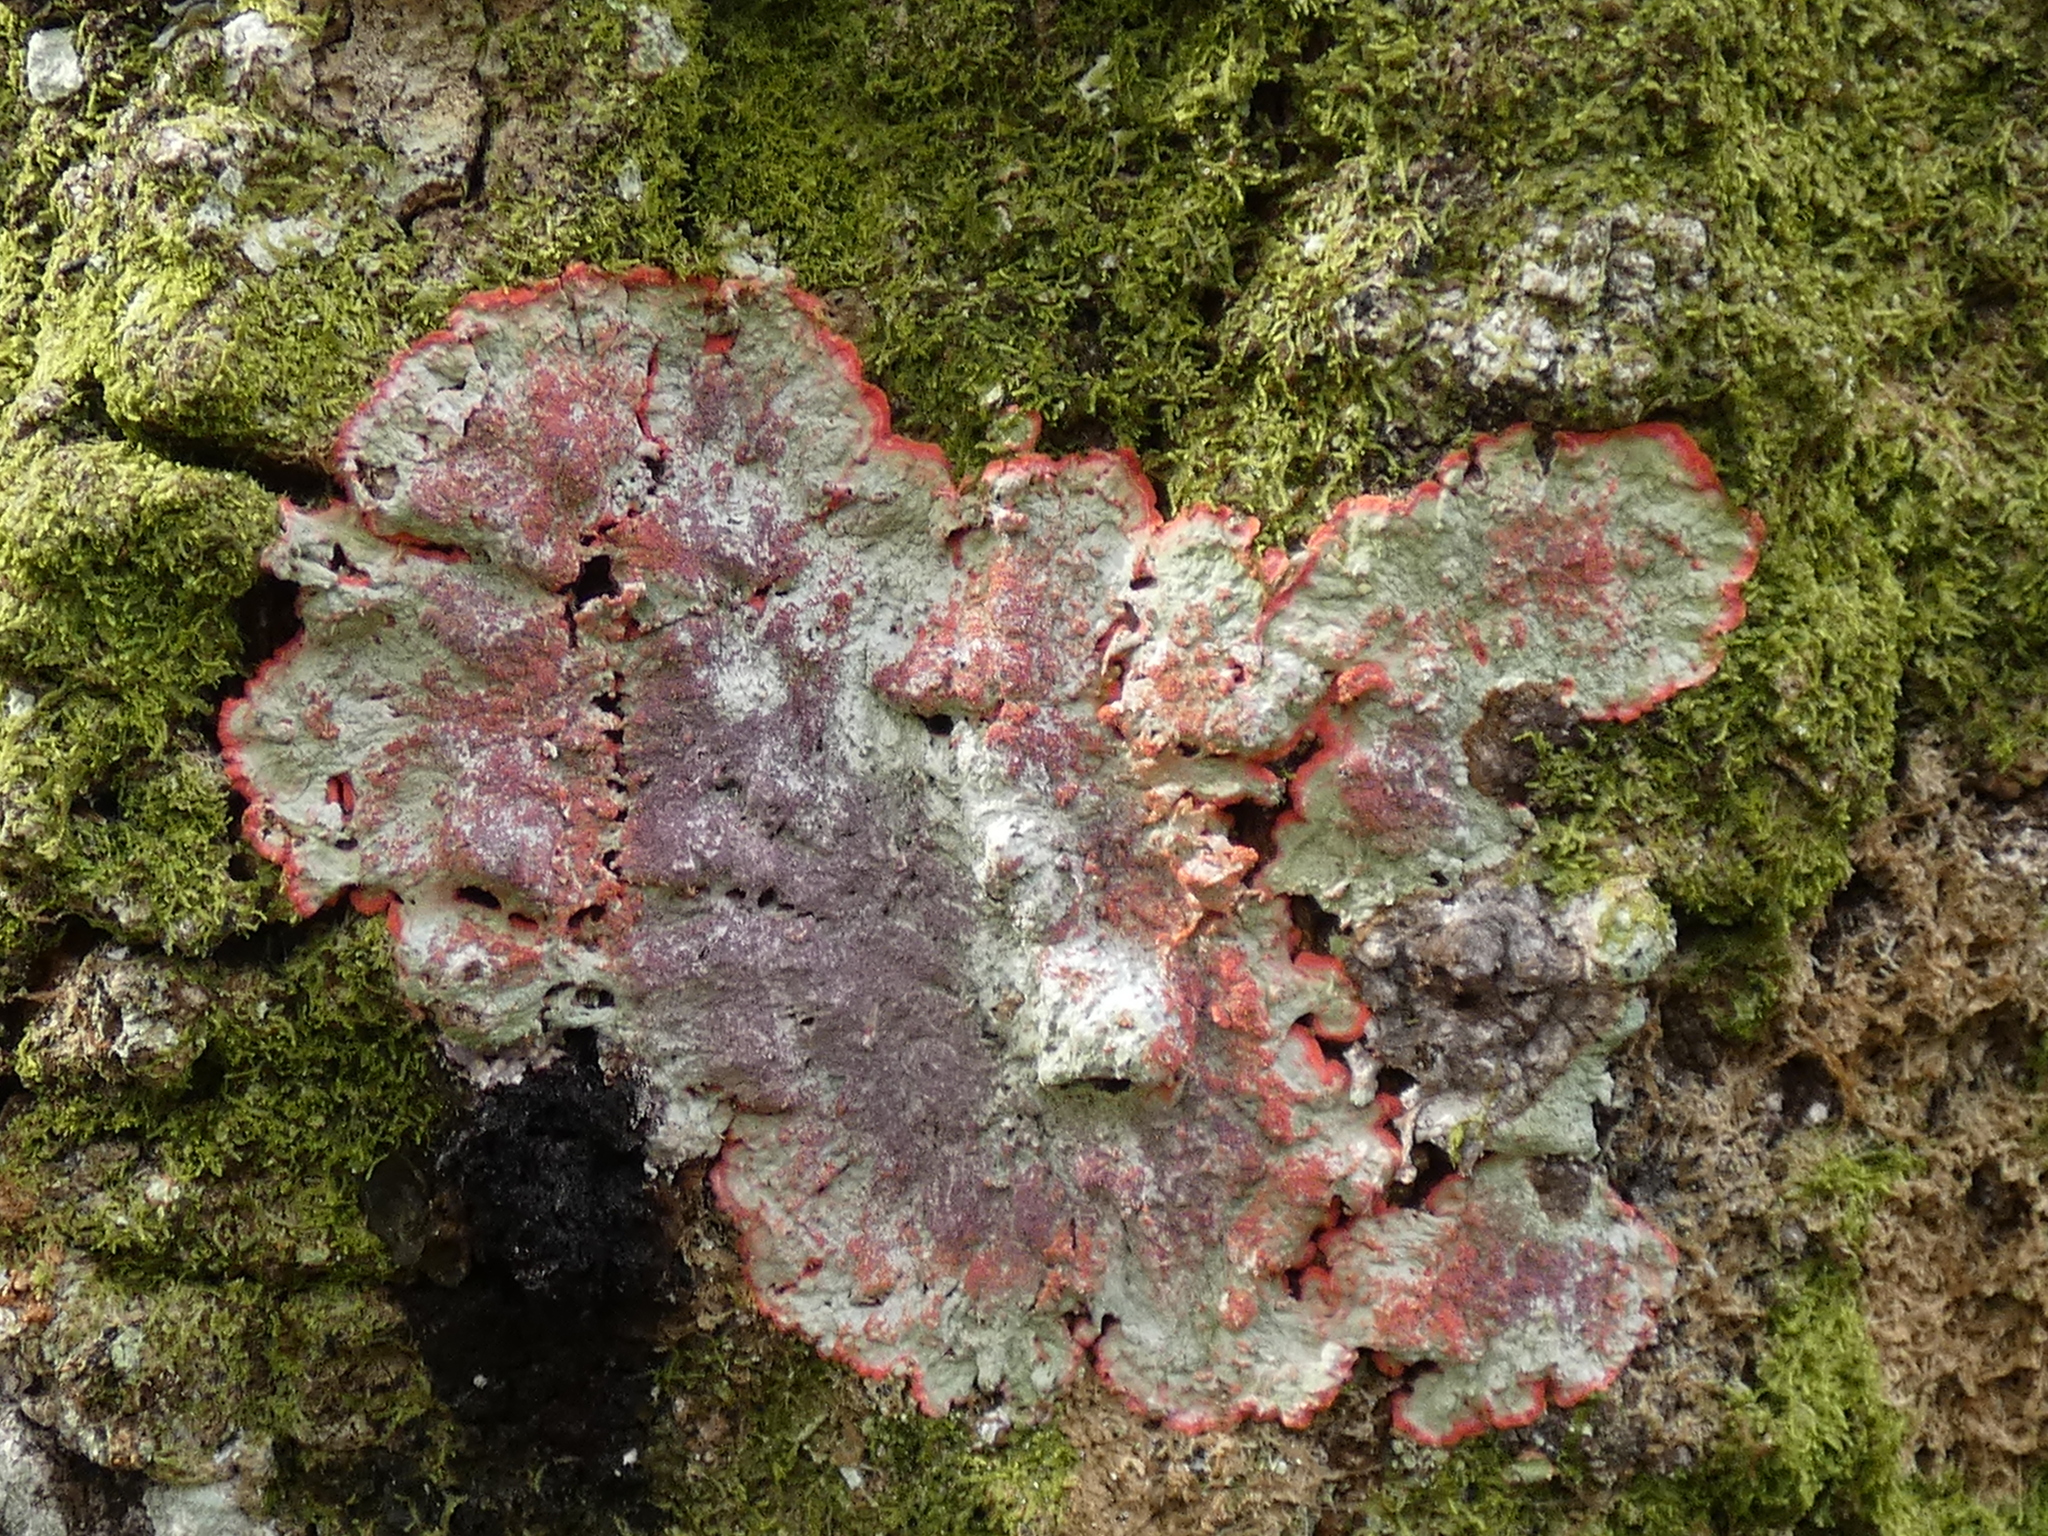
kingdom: Fungi
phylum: Ascomycota
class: Arthoniomycetes
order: Arthoniales
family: Arthoniaceae
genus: Herpothallon
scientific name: Herpothallon rubrocinctum
